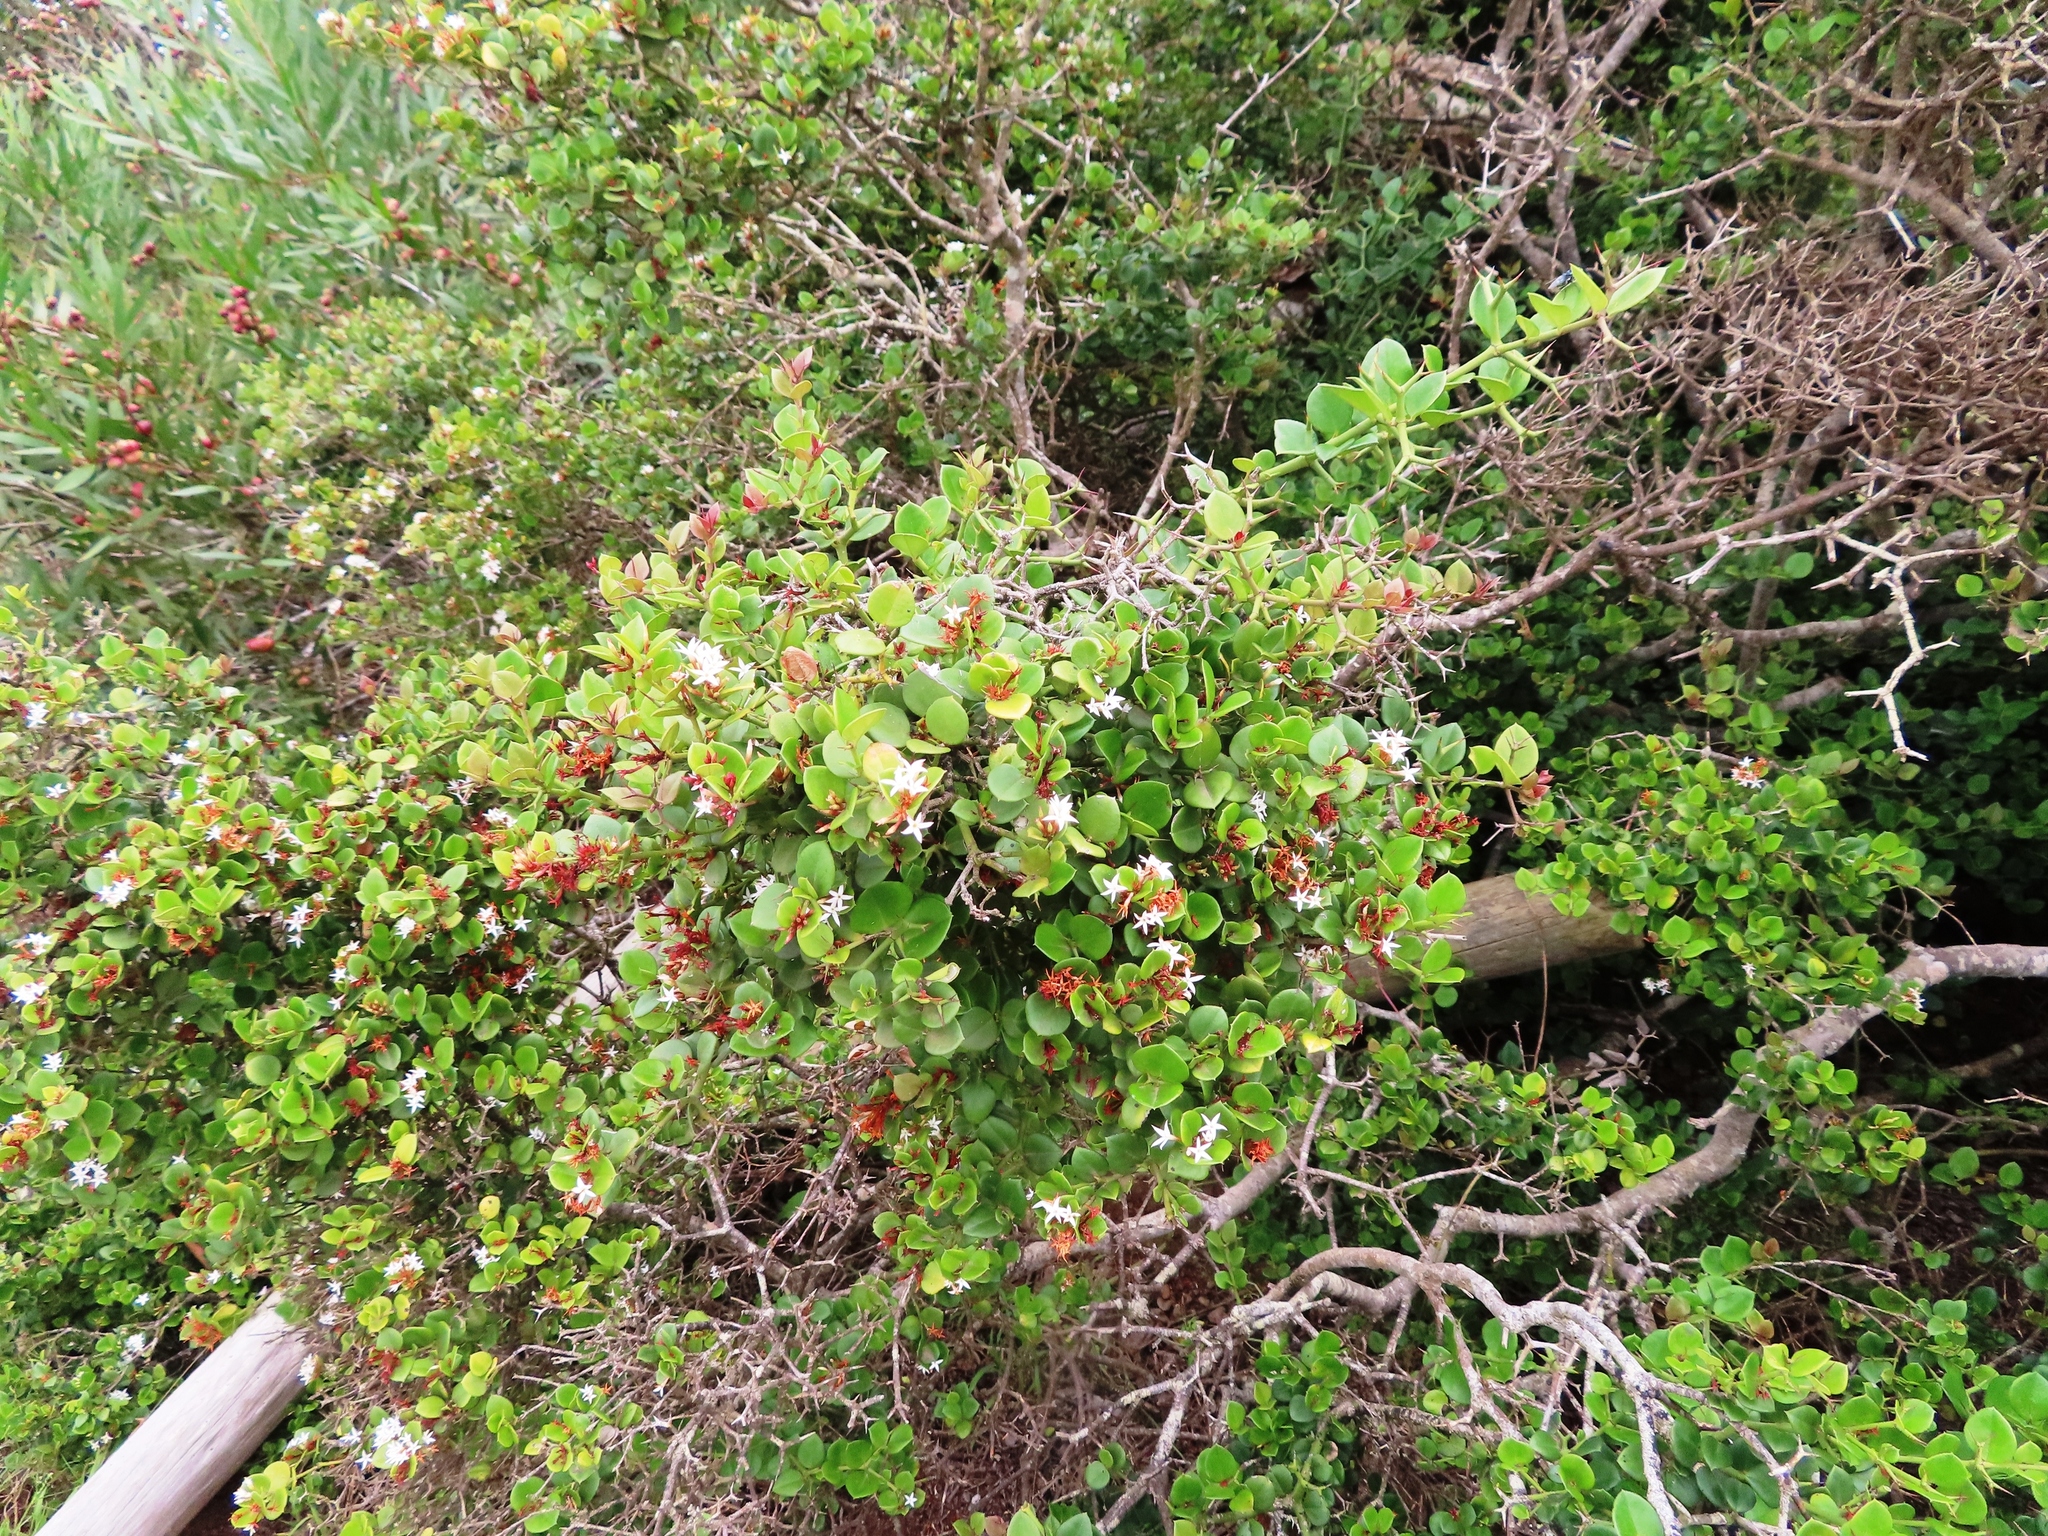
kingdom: Plantae
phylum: Tracheophyta
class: Magnoliopsida
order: Gentianales
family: Apocynaceae
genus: Carissa
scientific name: Carissa bispinosa
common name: Forest num-num
